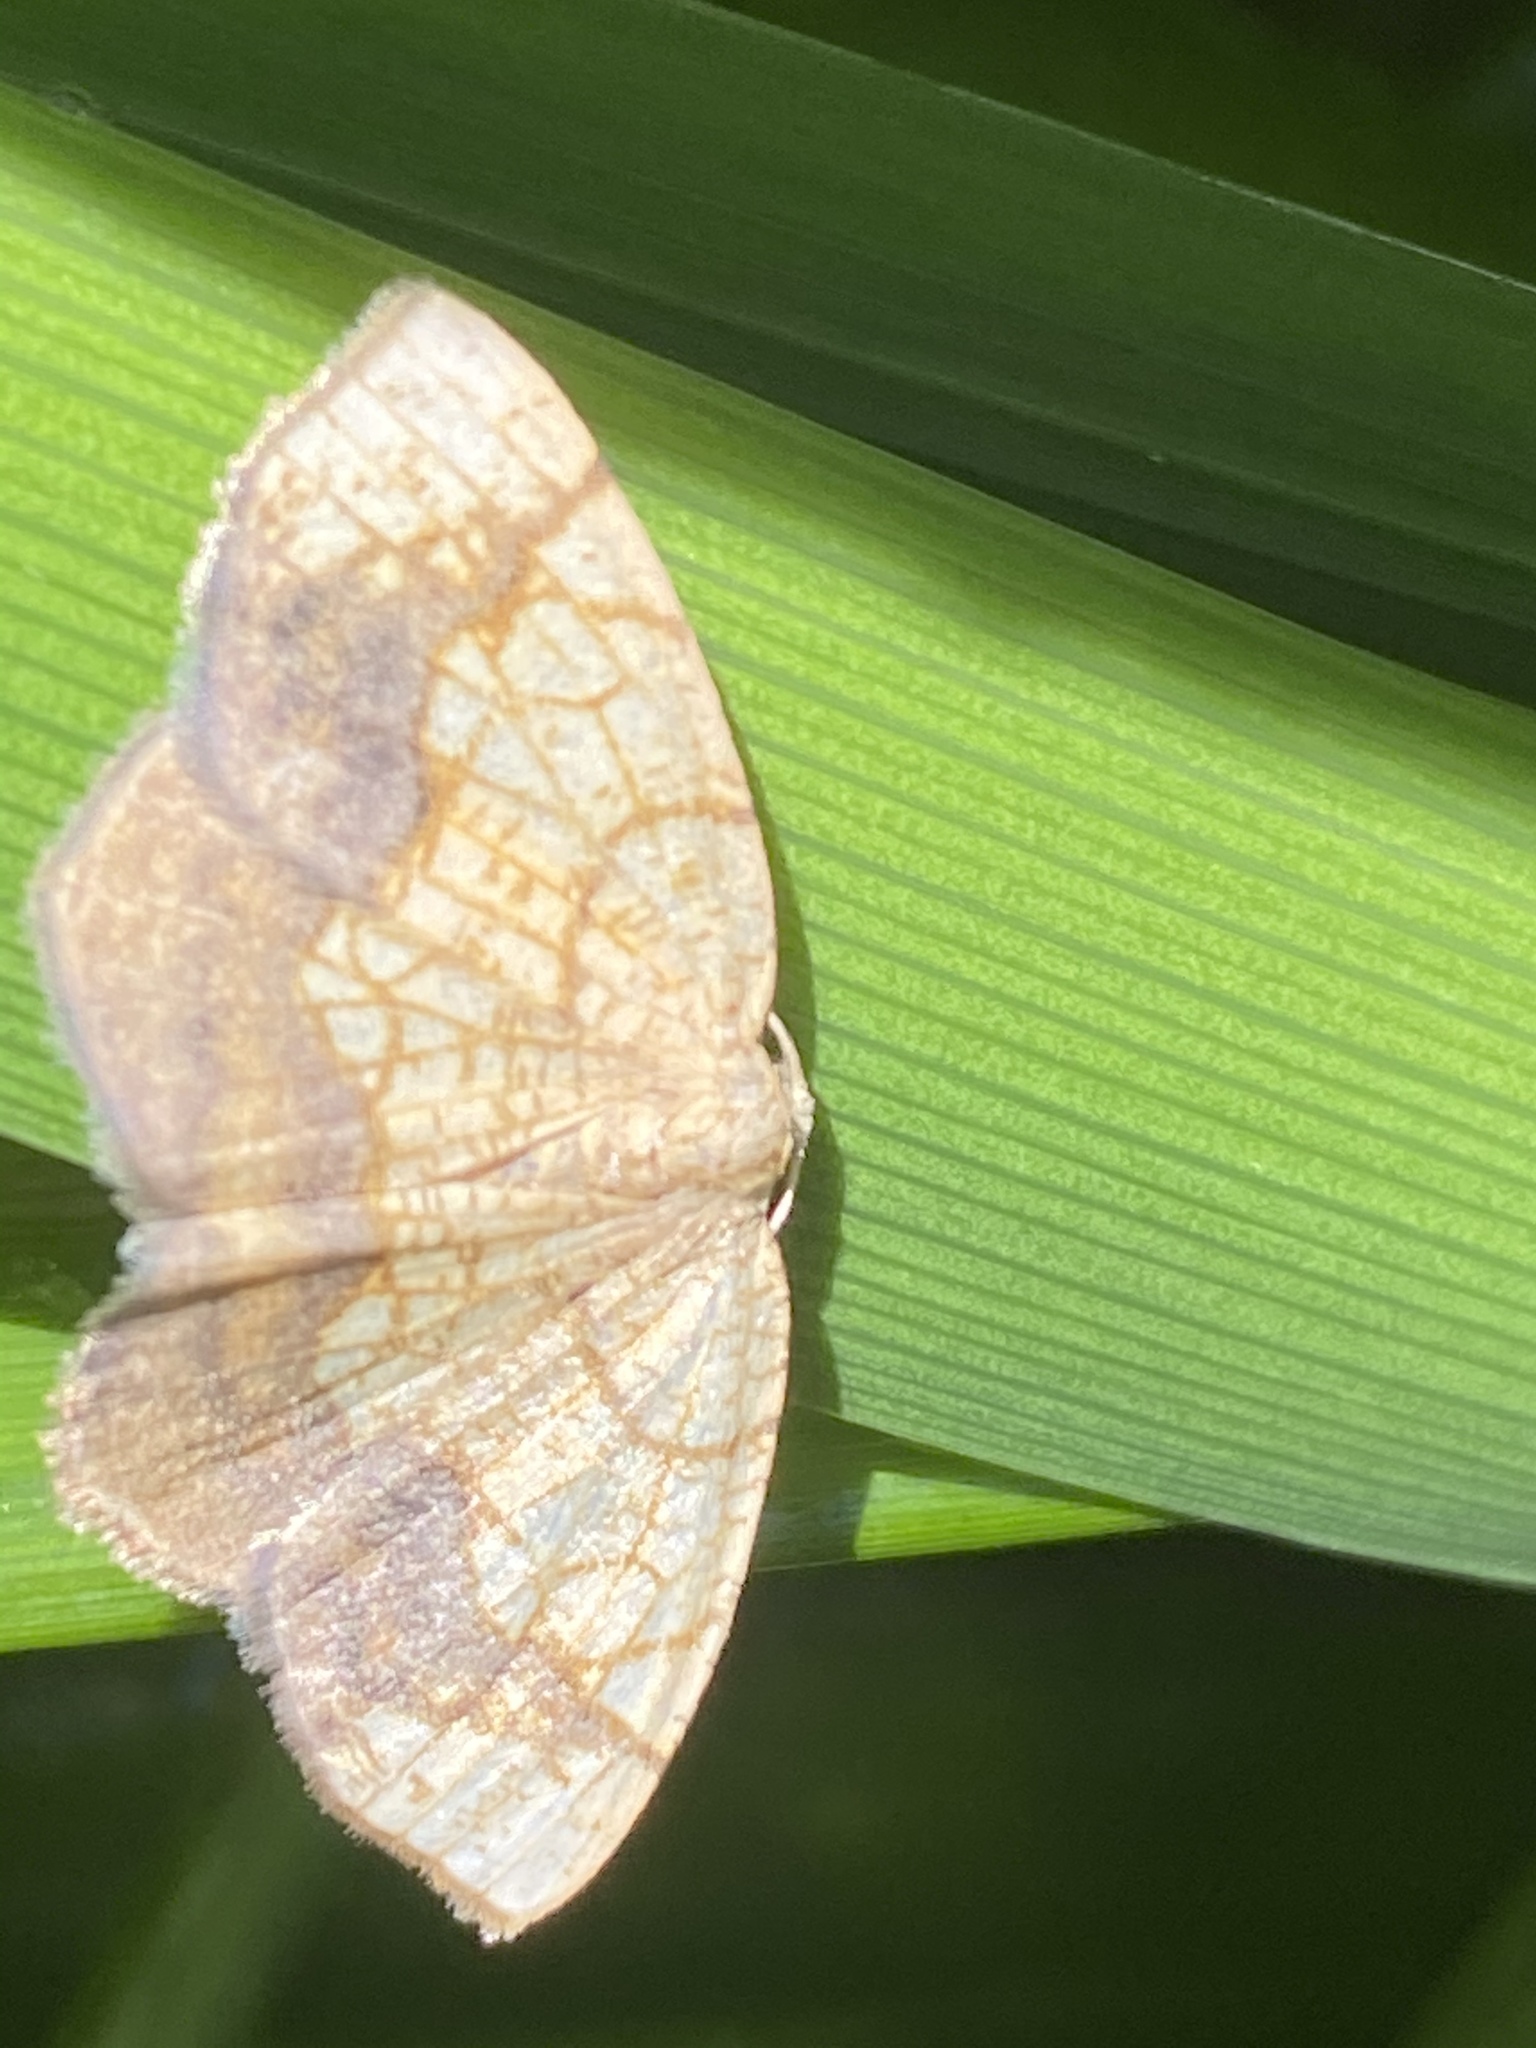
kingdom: Animalia
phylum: Arthropoda
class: Insecta
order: Lepidoptera
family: Geometridae
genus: Nematocampa
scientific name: Nematocampa resistaria
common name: Horned spanworm moth
